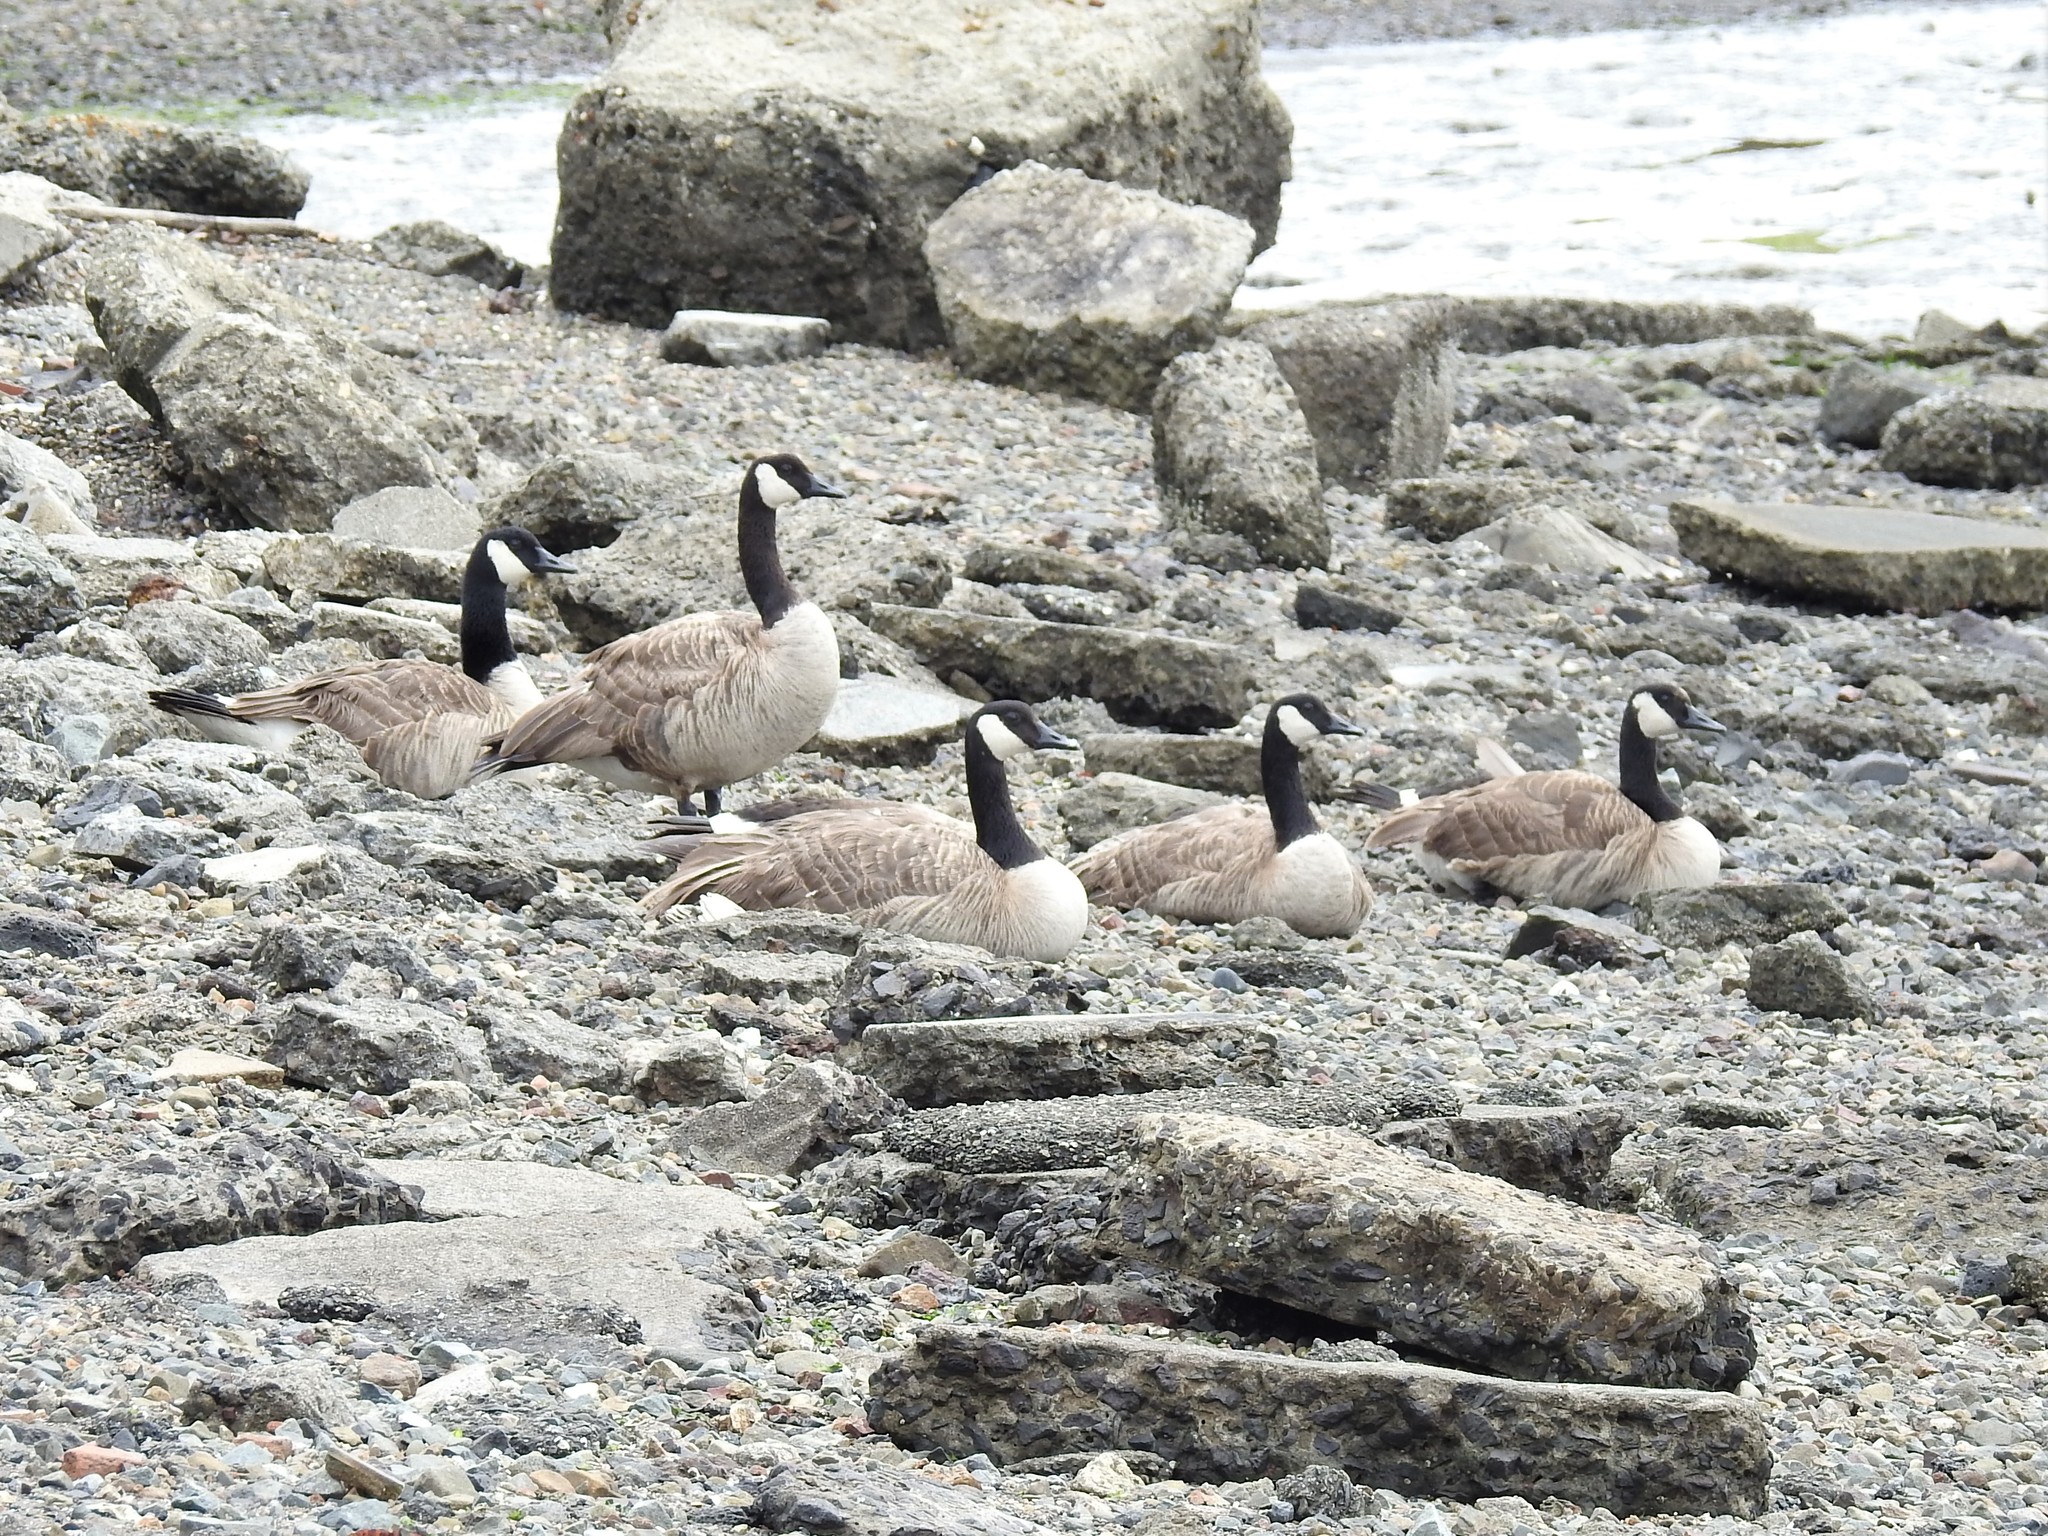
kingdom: Animalia
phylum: Chordata
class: Aves
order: Anseriformes
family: Anatidae
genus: Branta
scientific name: Branta canadensis
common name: Canada goose
